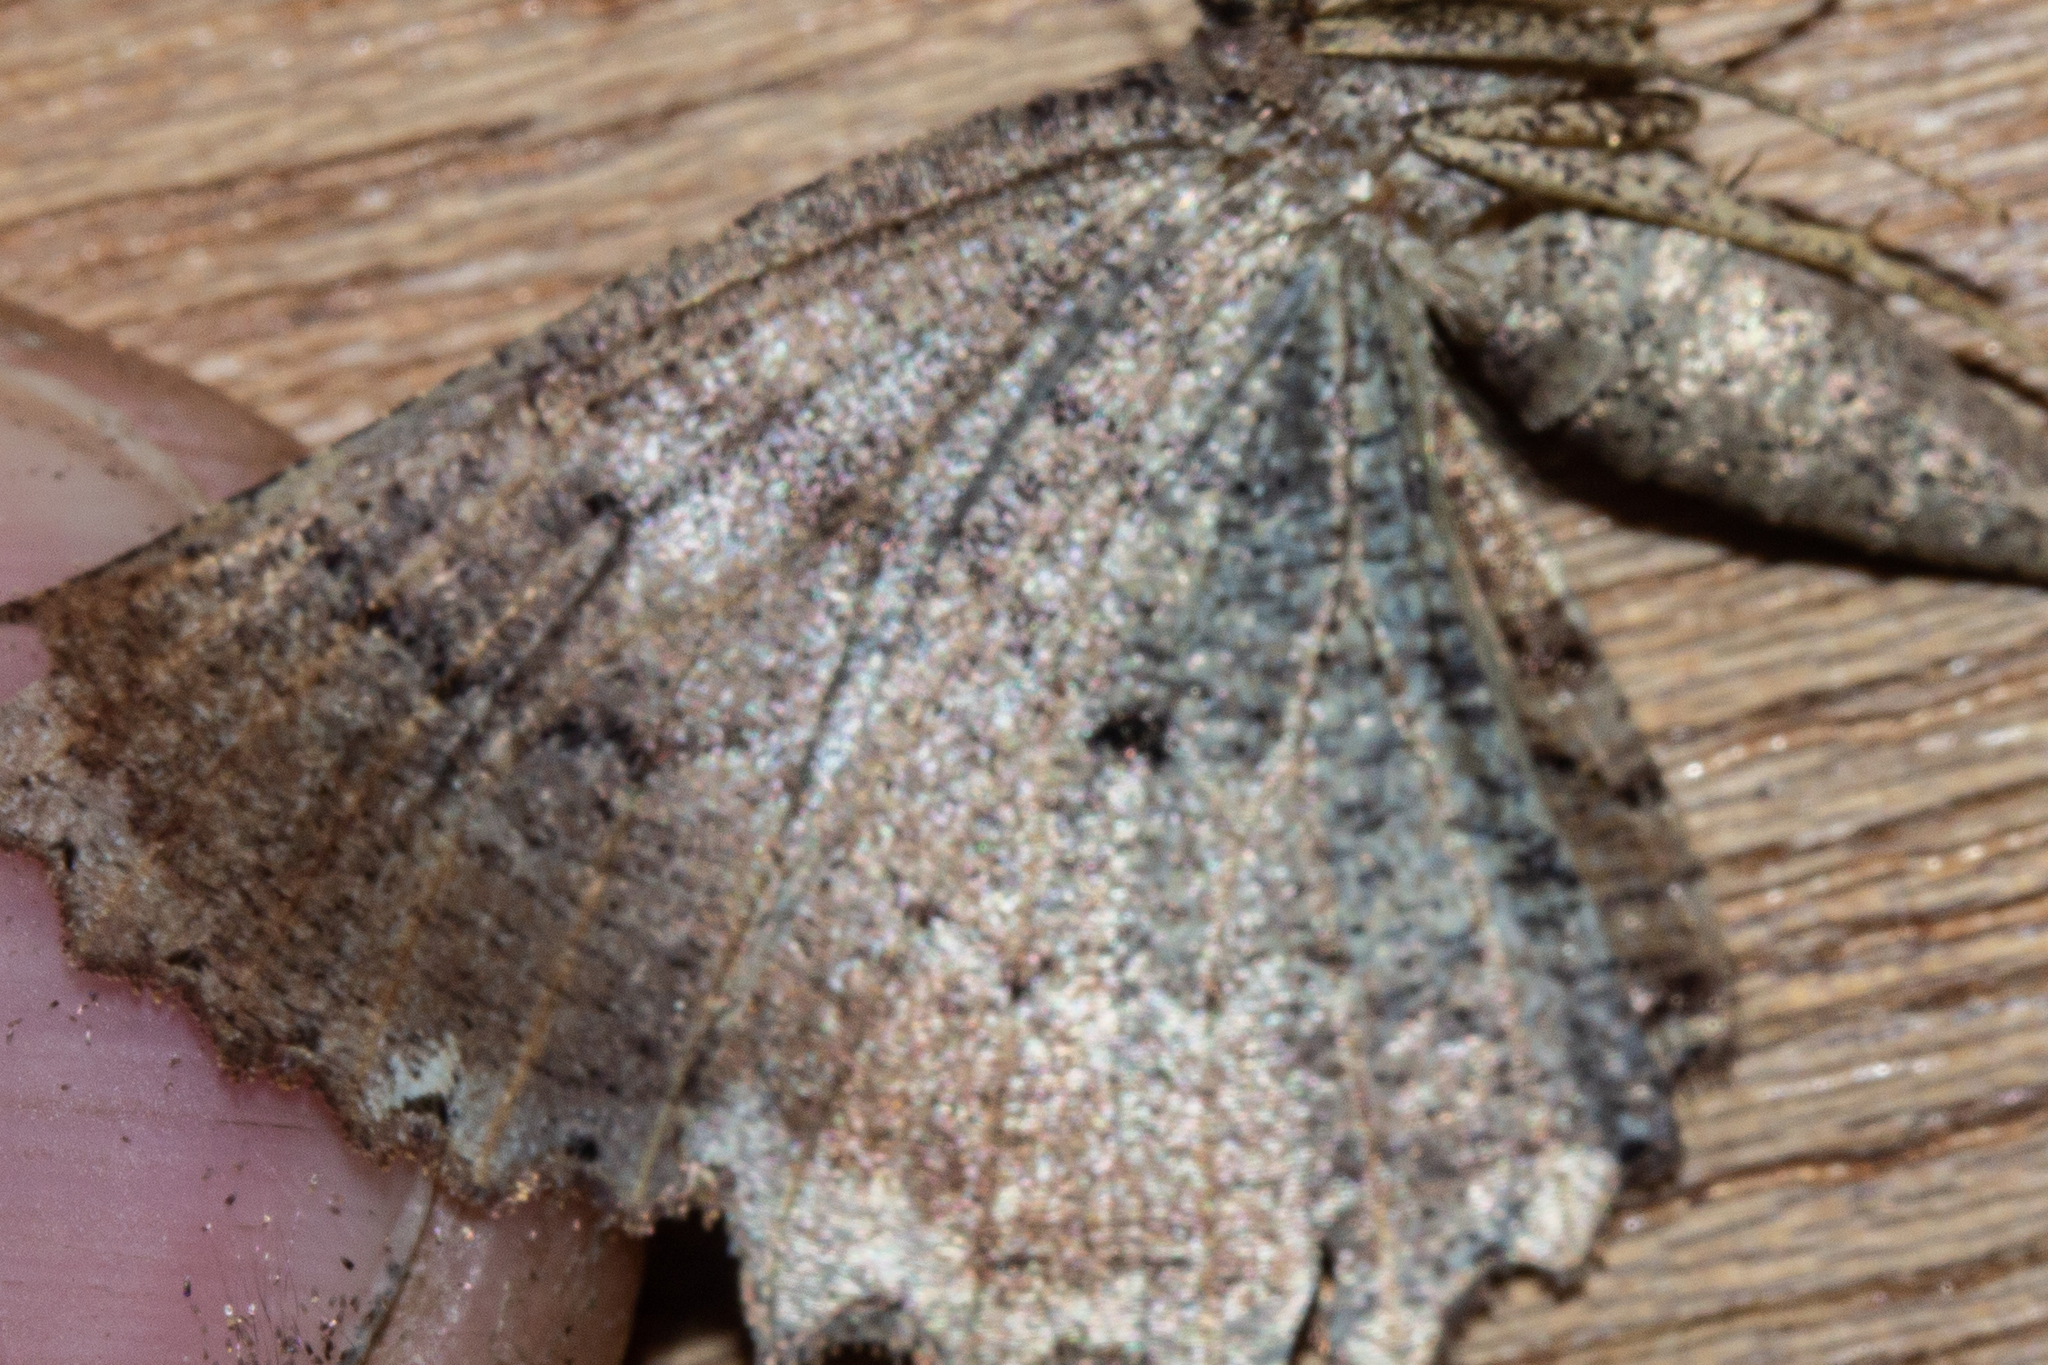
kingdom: Animalia
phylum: Arthropoda
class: Insecta
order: Lepidoptera
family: Geometridae
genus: Gellonia
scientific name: Gellonia pannularia
